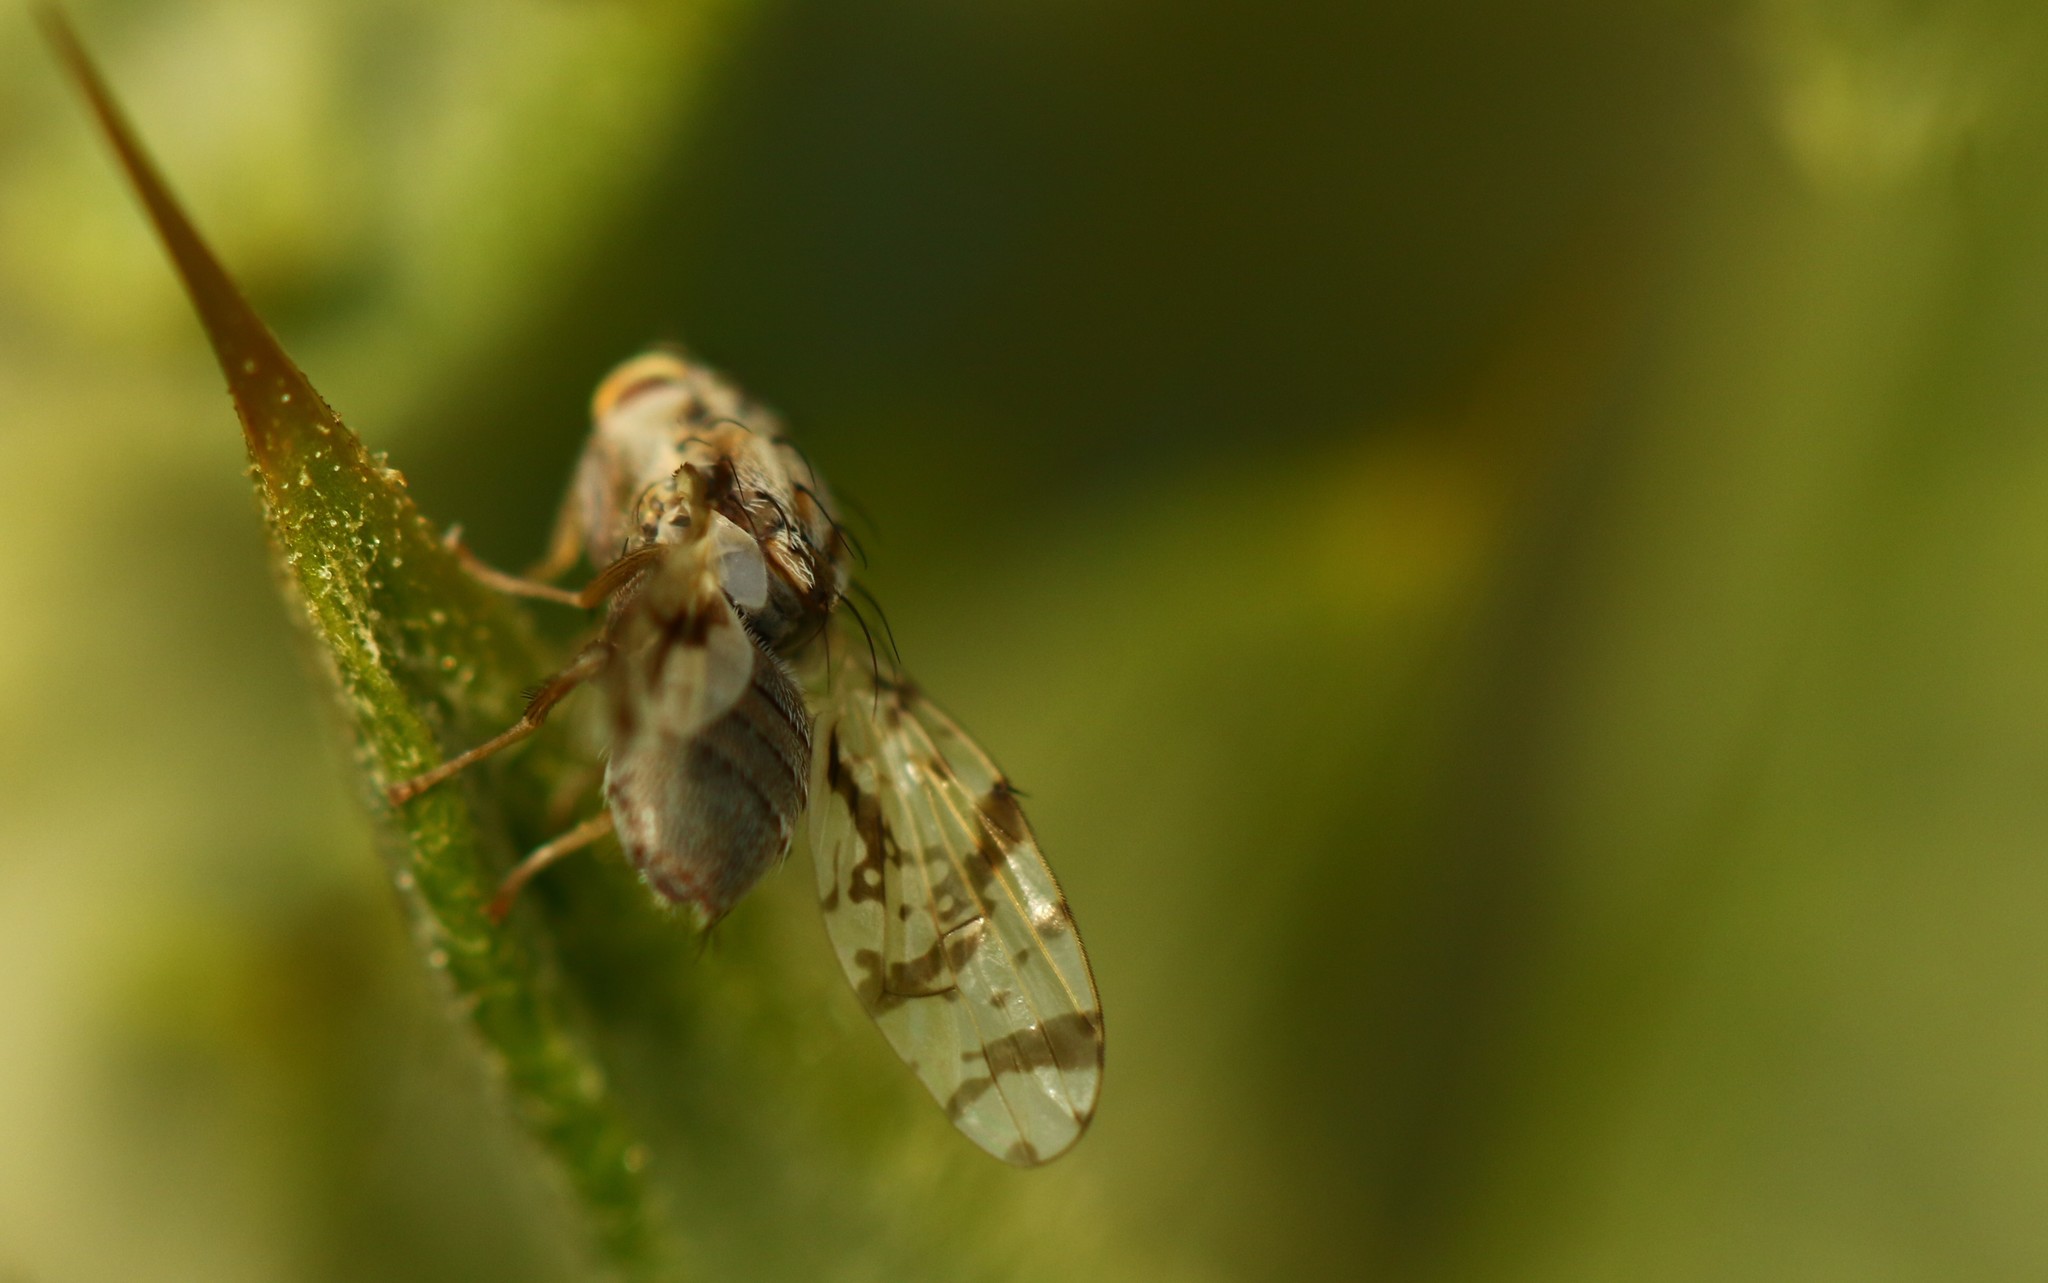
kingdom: Animalia
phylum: Arthropoda
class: Insecta
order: Diptera
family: Tephritidae
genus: Tephritis
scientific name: Tephritis postica
